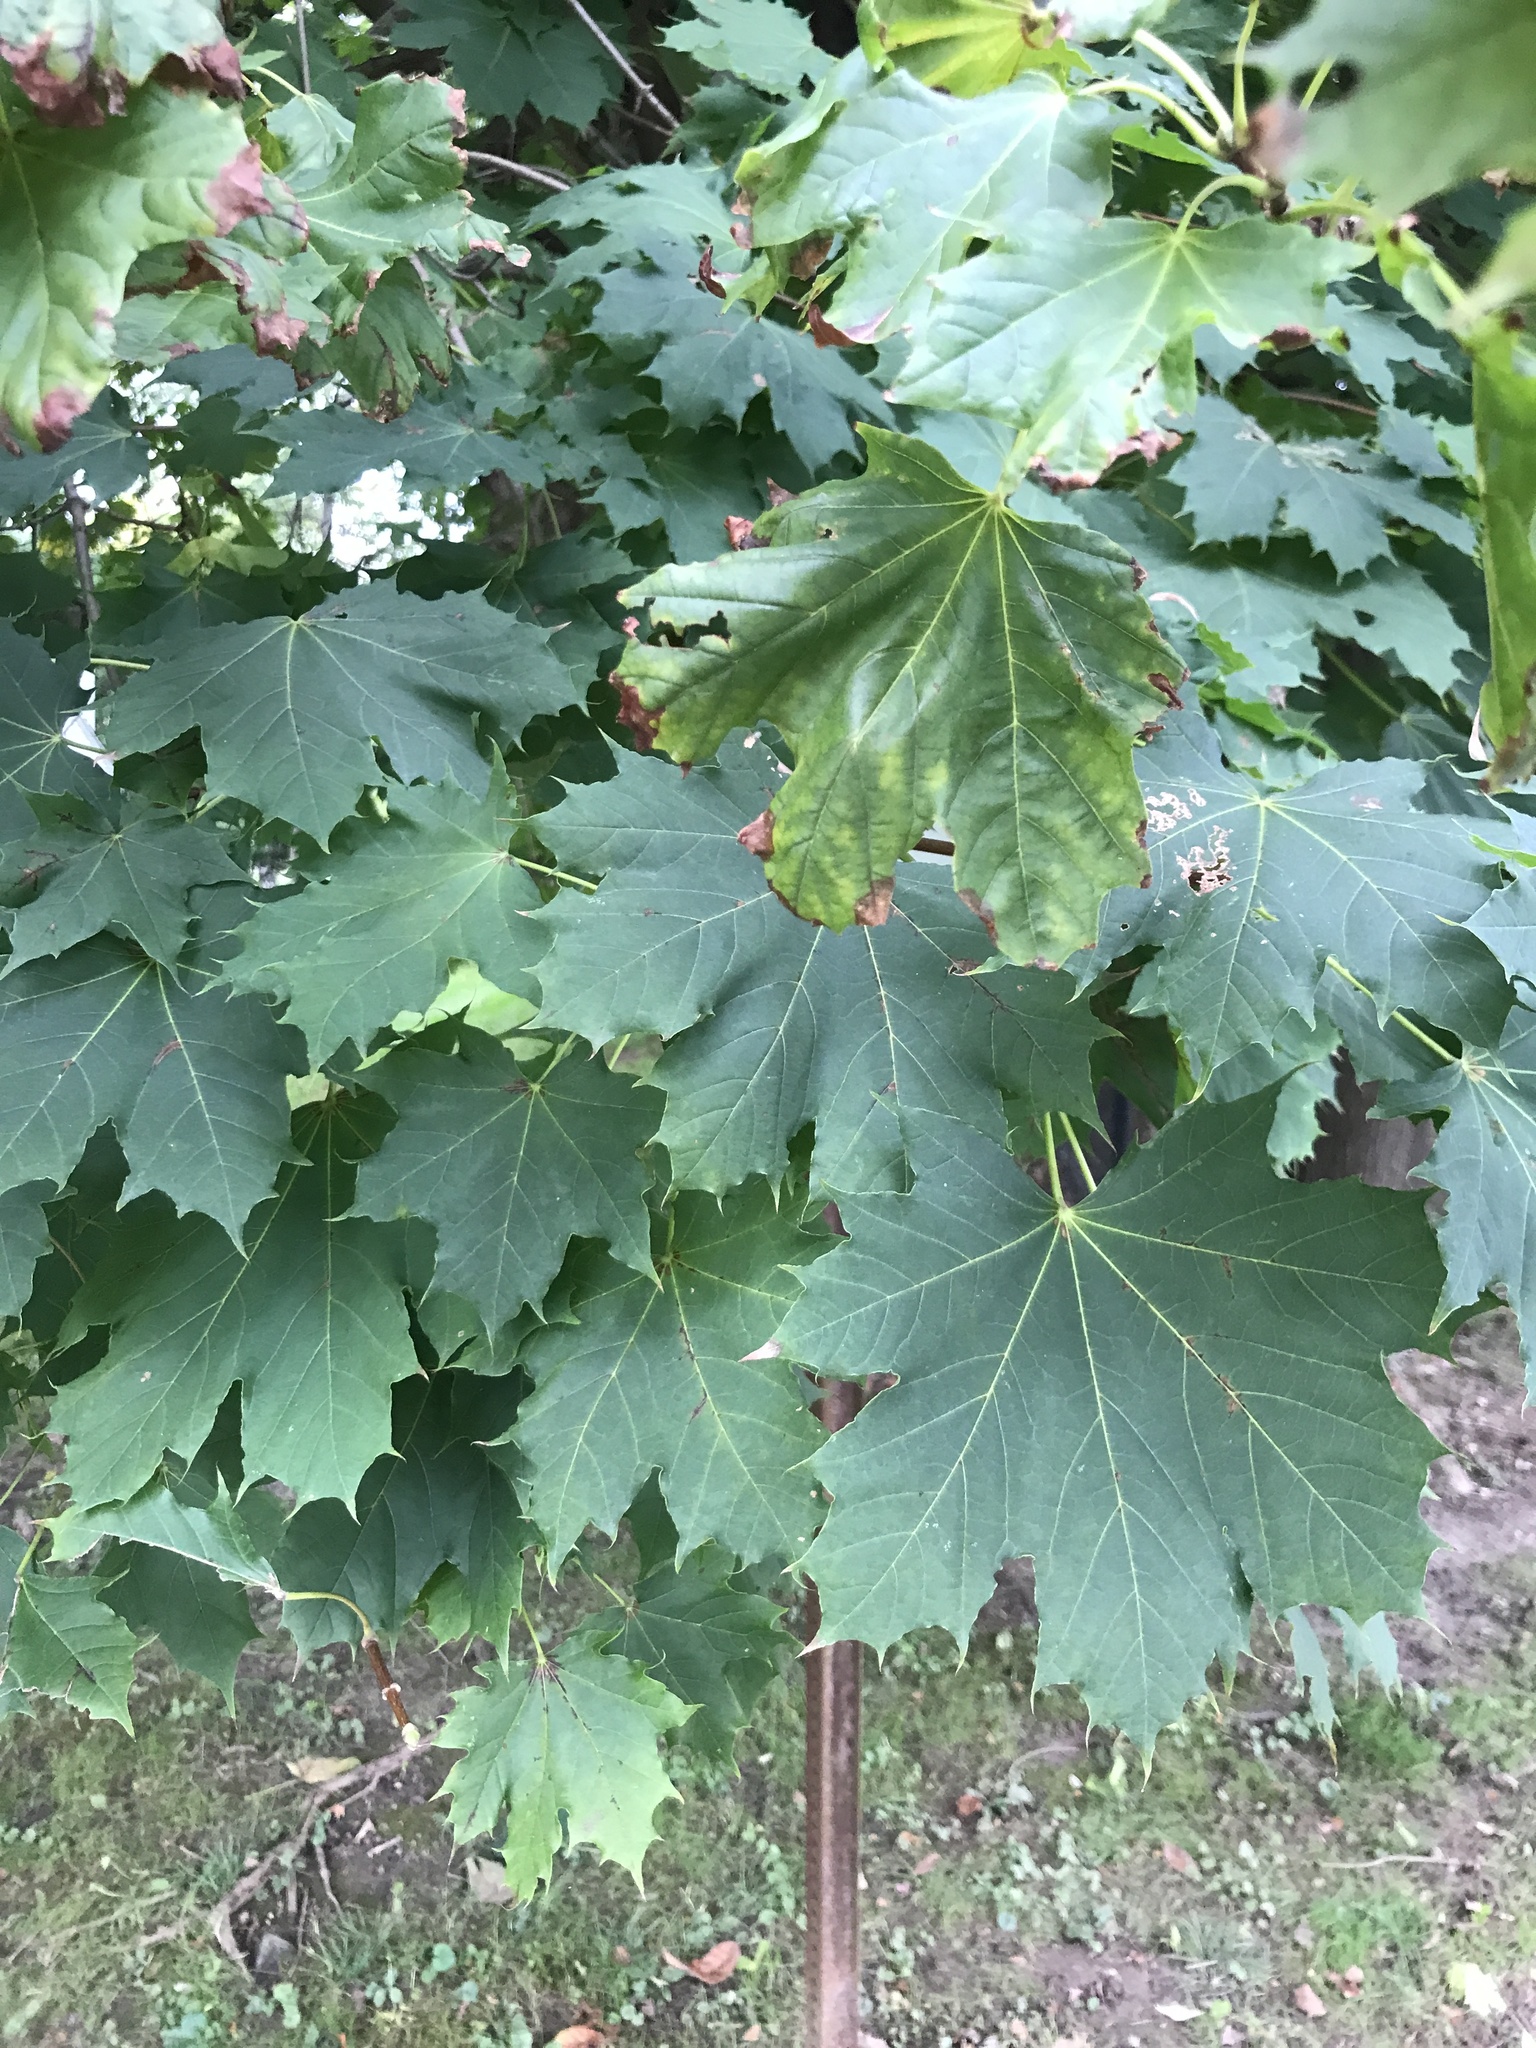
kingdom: Plantae
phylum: Tracheophyta
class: Magnoliopsida
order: Sapindales
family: Sapindaceae
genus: Acer
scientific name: Acer platanoides
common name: Norway maple
